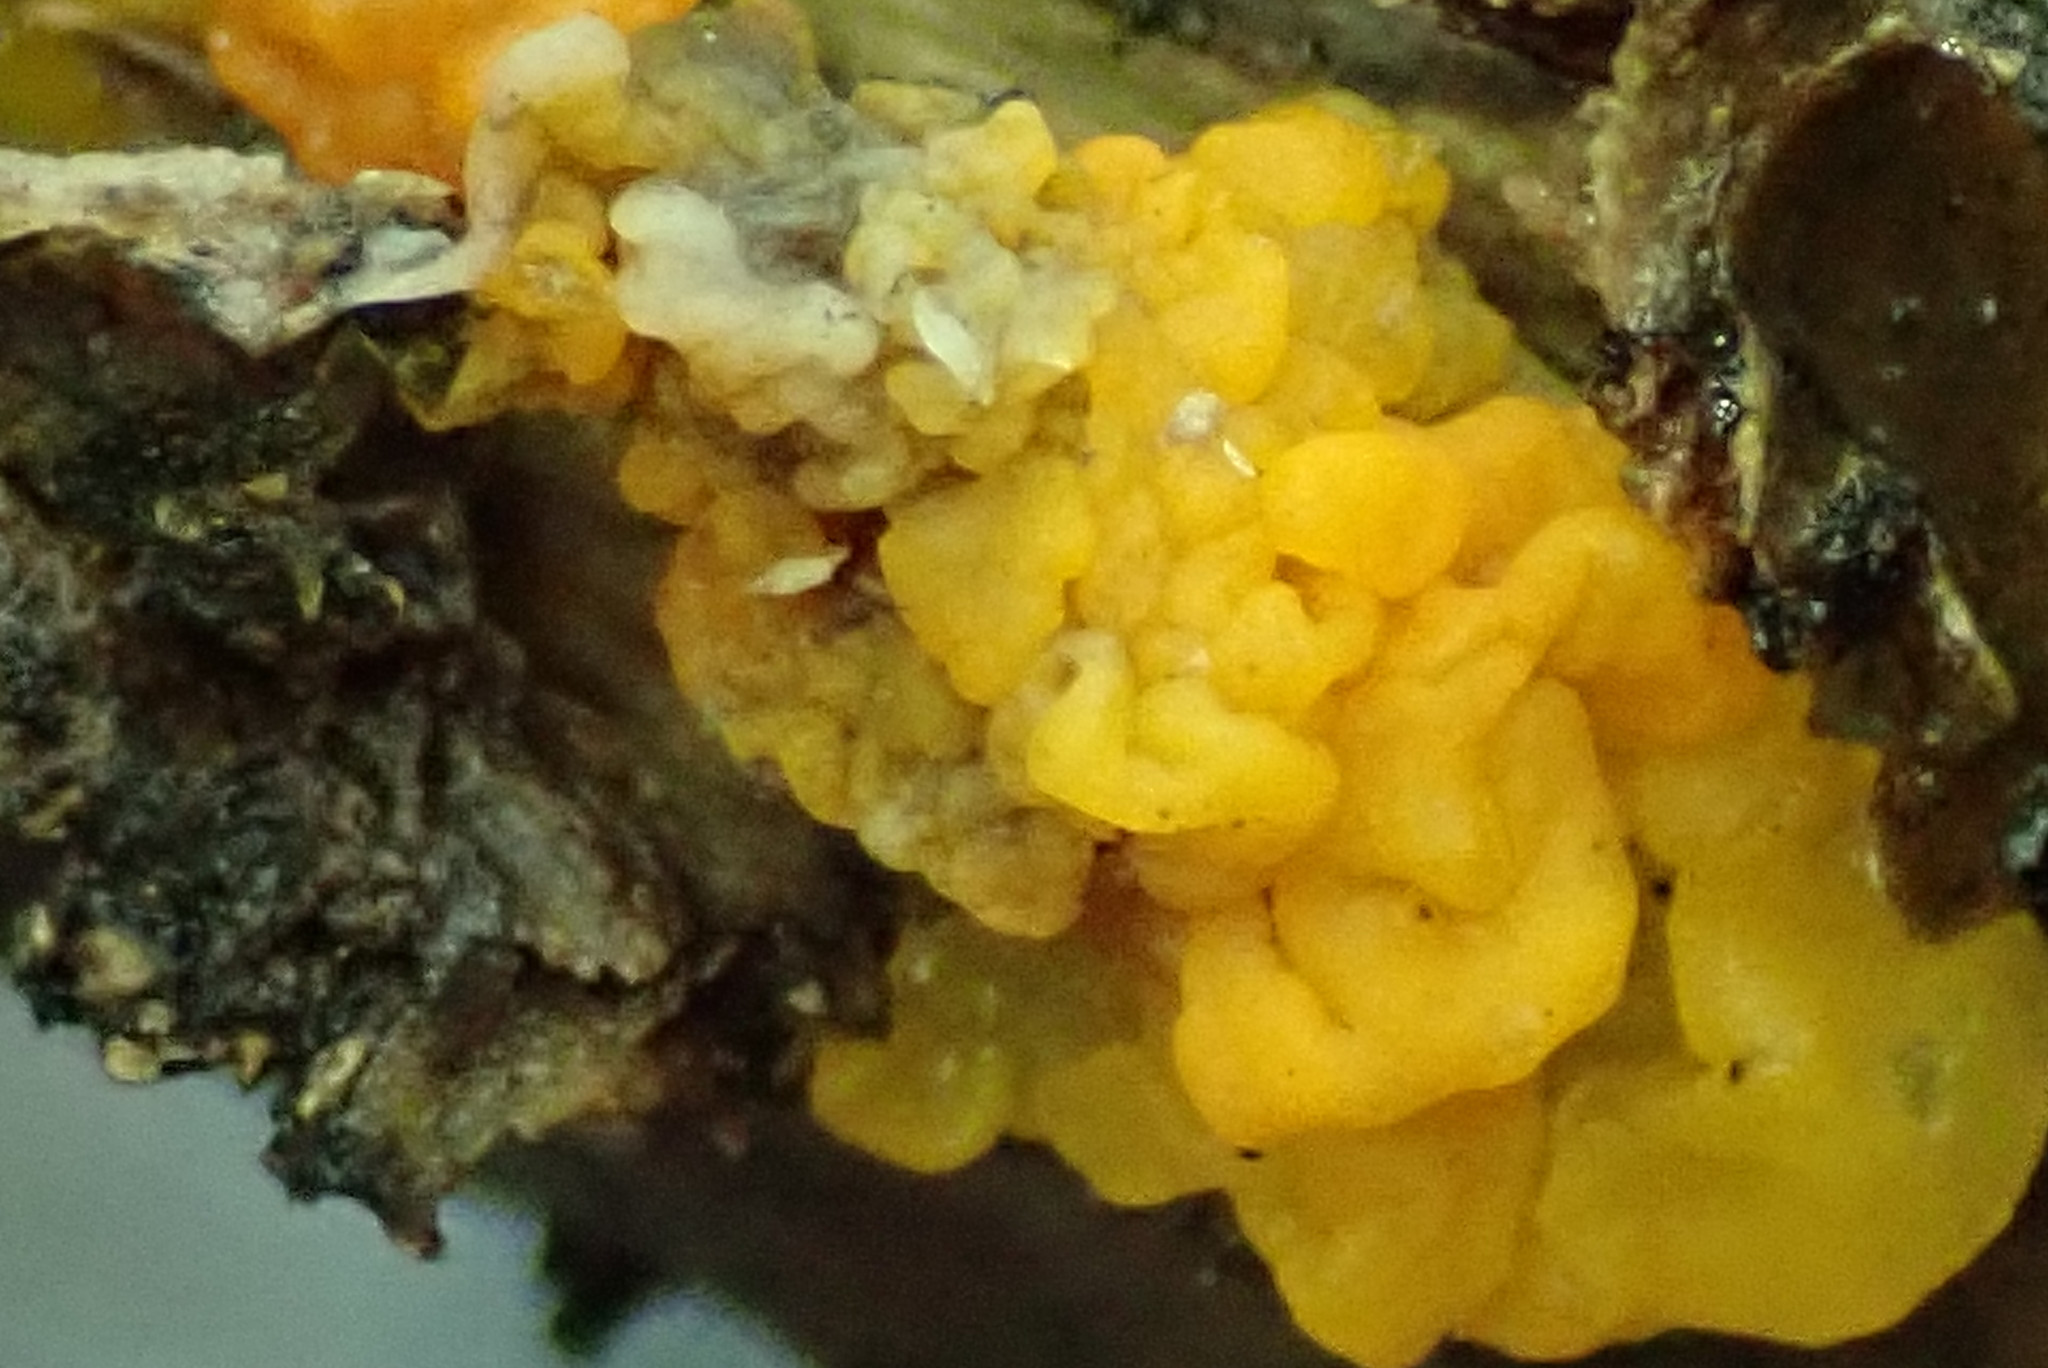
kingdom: Fungi
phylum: Basidiomycota
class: Tremellomycetes
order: Tremellales
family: Tremellaceae
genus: Tremella
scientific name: Tremella mesenterica
